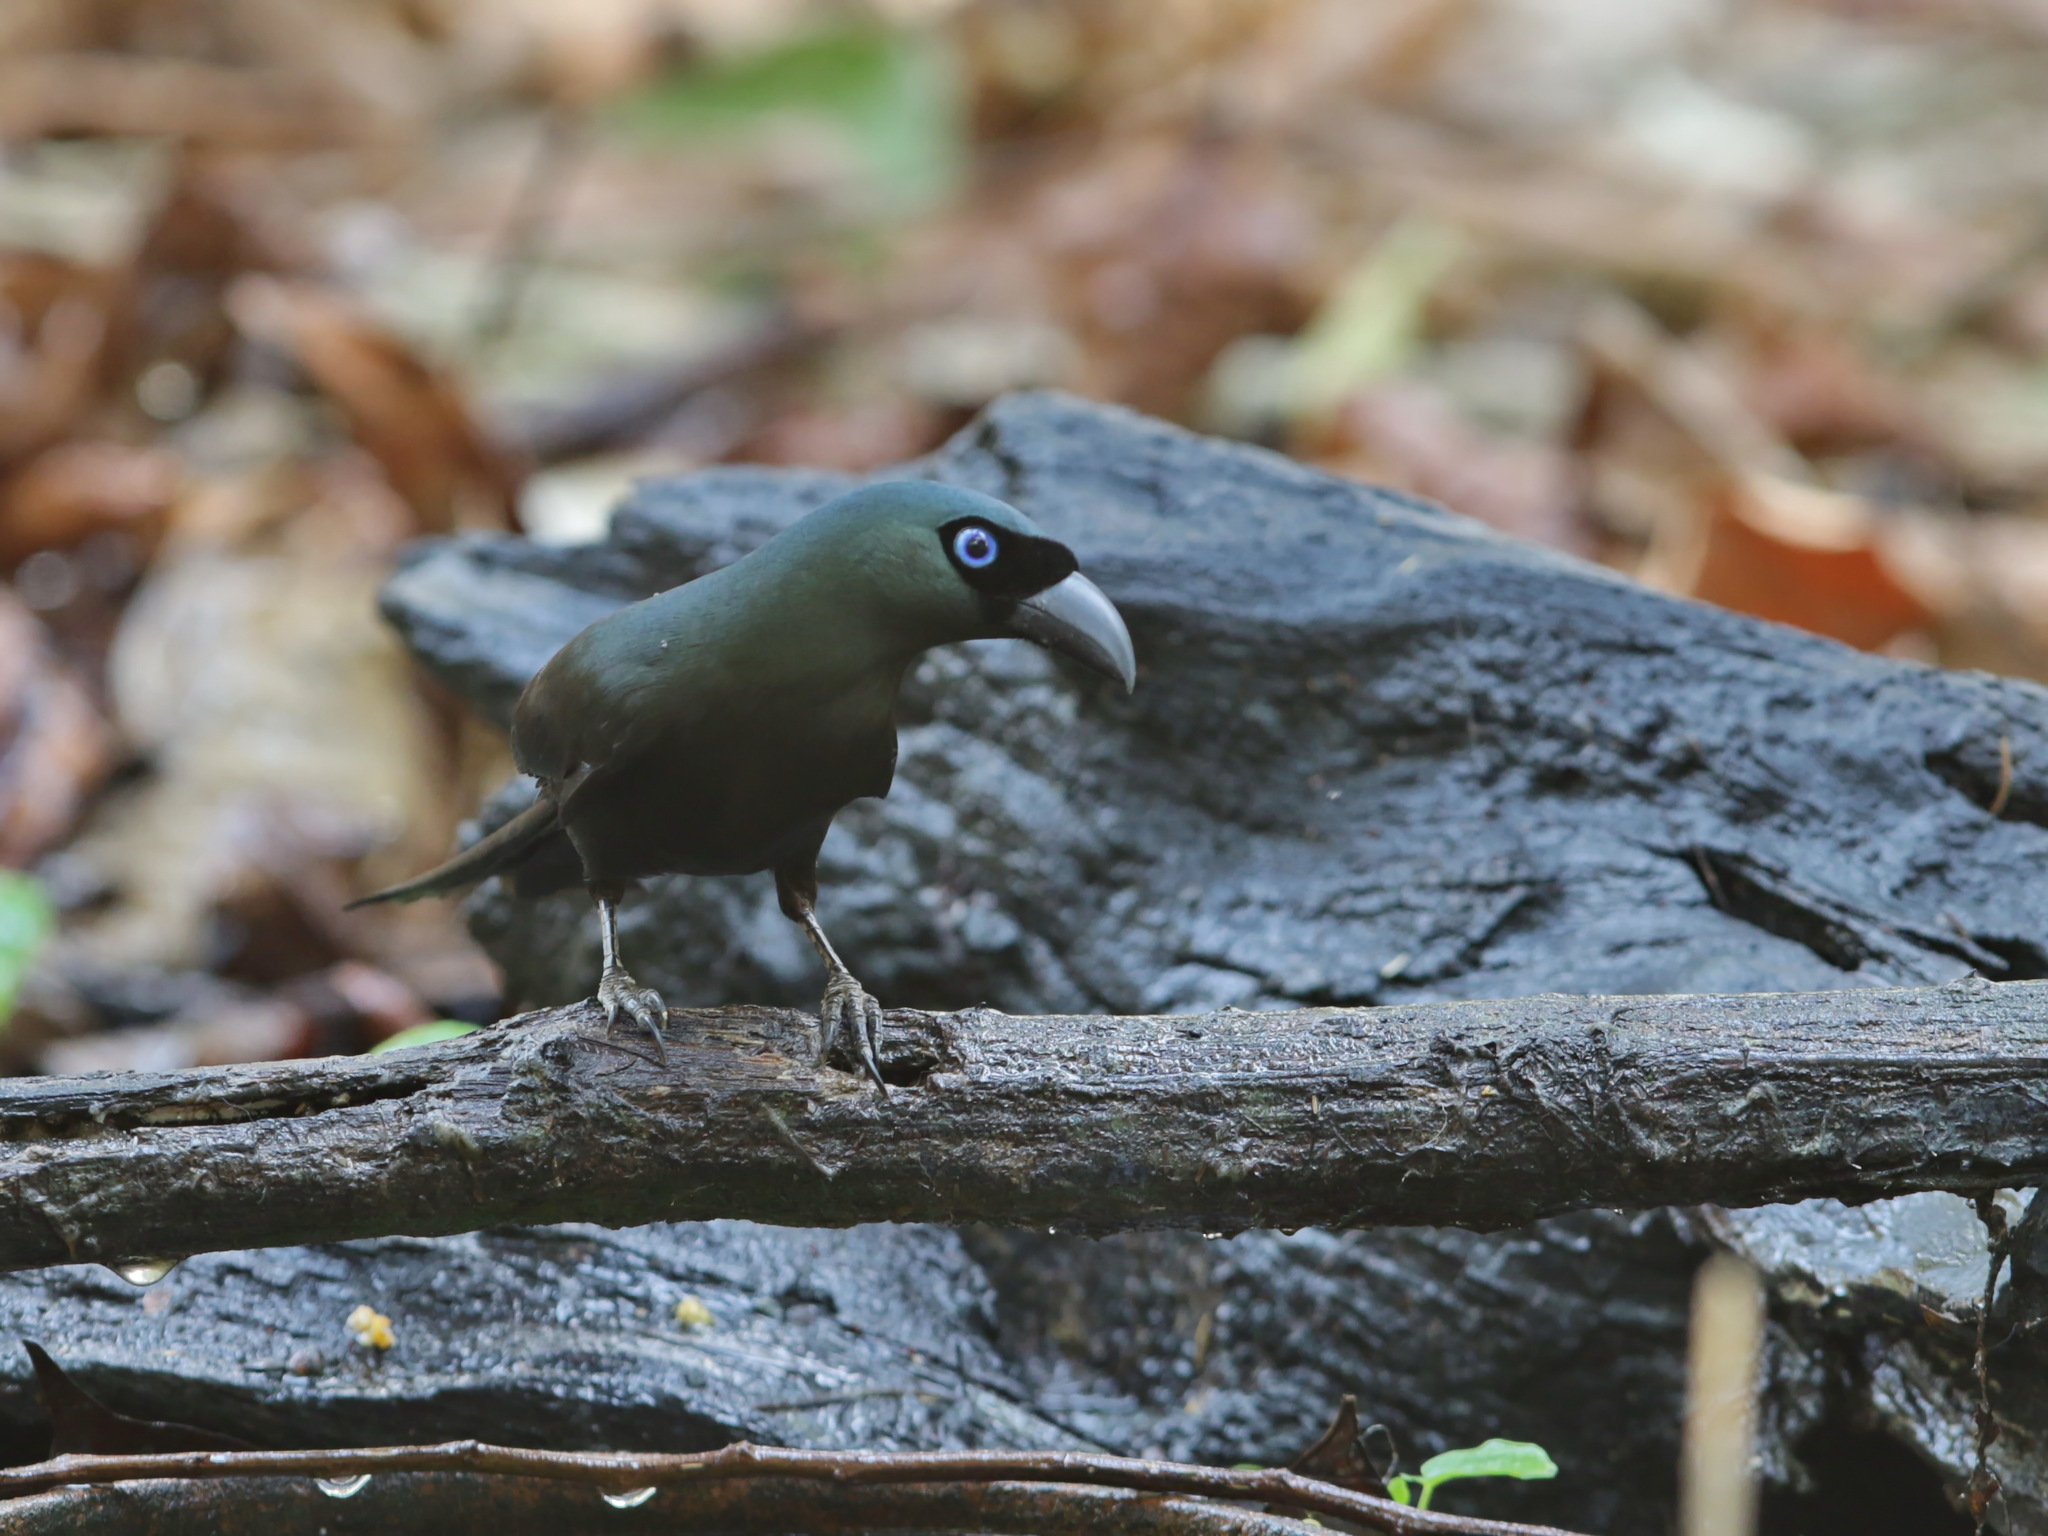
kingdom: Animalia
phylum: Chordata
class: Aves
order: Passeriformes
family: Corvidae
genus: Crypsirina
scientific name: Crypsirina temia
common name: Racket-tailed treepie
